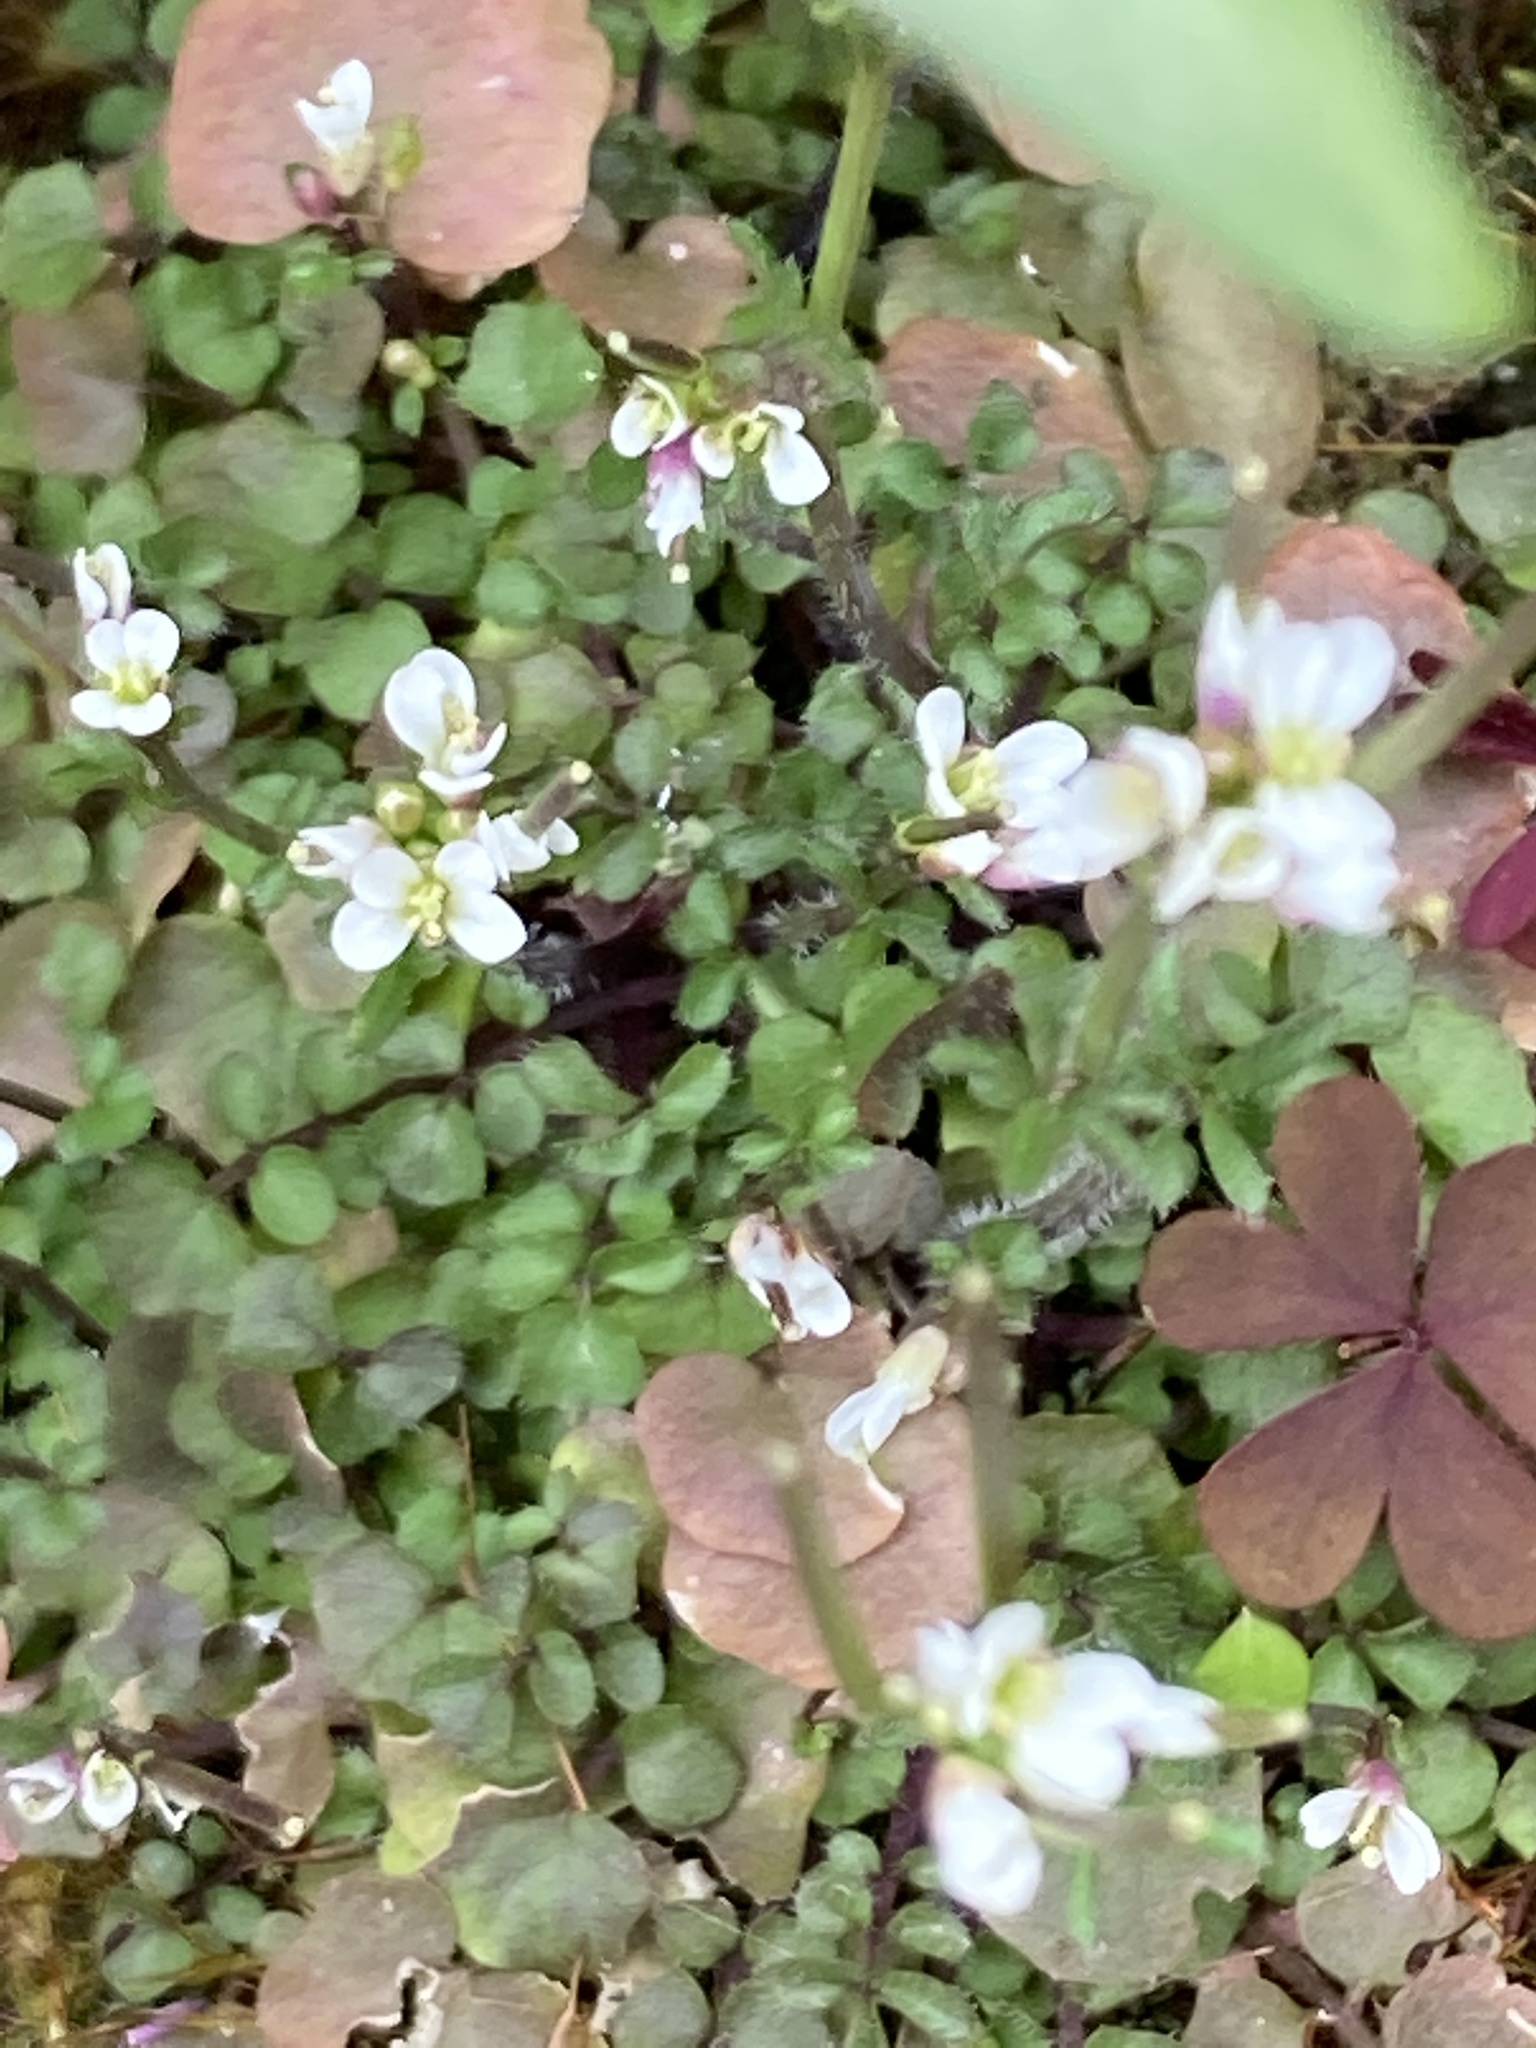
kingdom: Plantae
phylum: Tracheophyta
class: Magnoliopsida
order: Brassicales
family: Brassicaceae
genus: Cardamine
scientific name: Cardamine hirsuta
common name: Hairy bittercress
